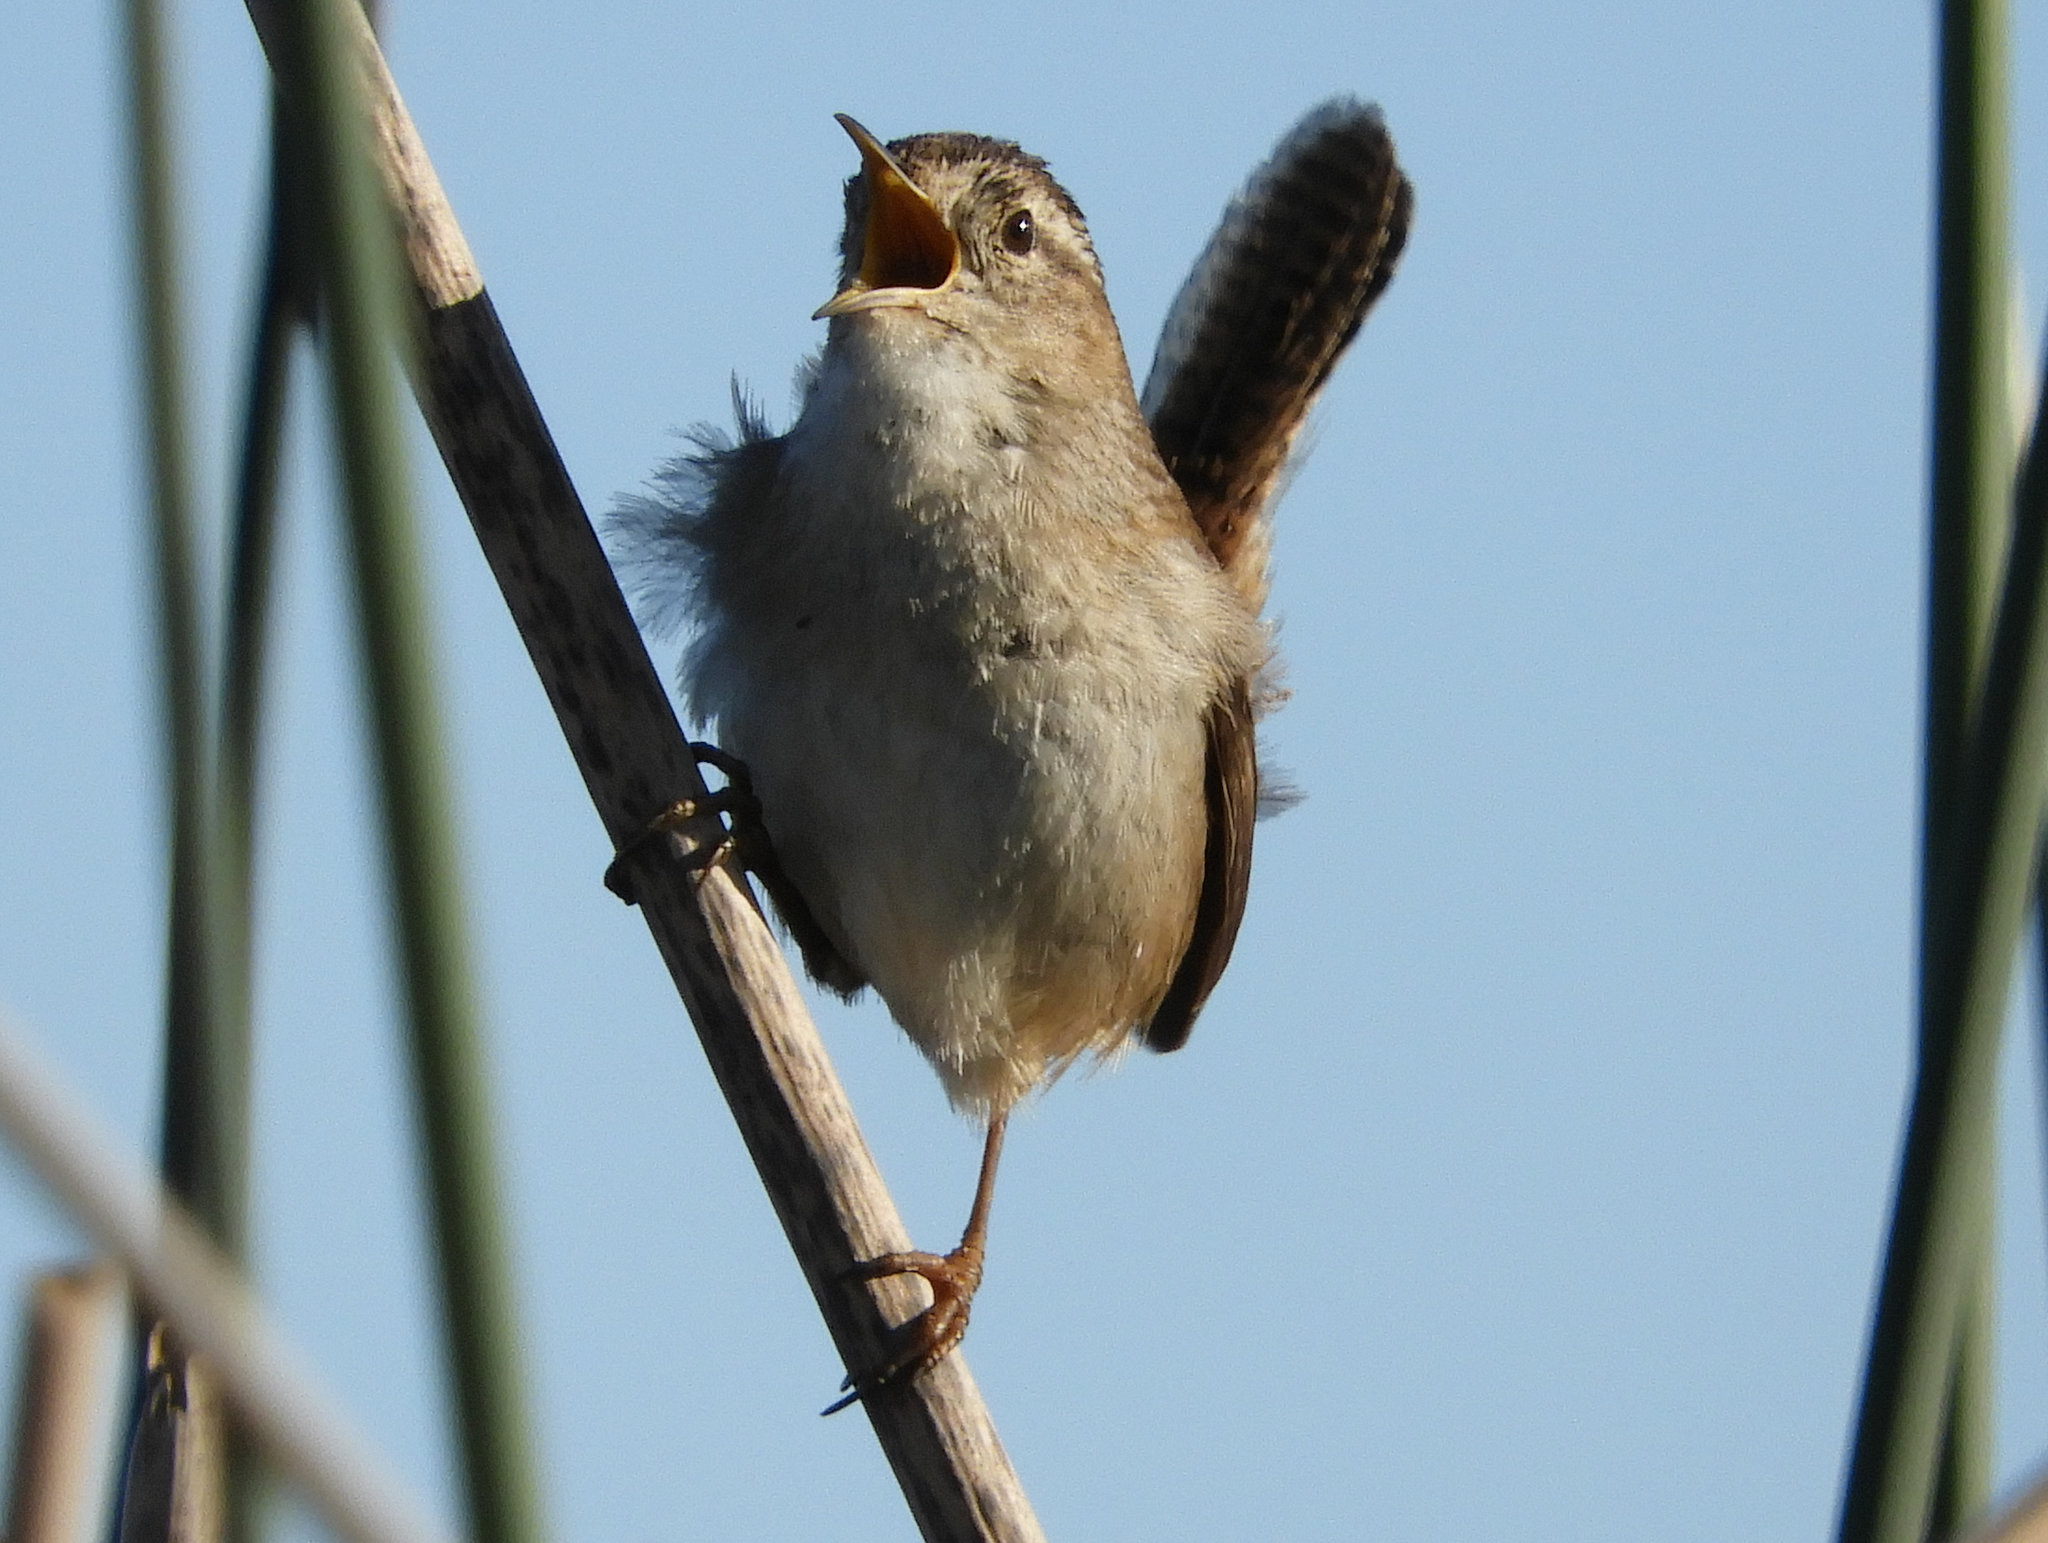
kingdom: Animalia
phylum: Chordata
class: Aves
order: Passeriformes
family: Troglodytidae
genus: Cistothorus
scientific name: Cistothorus palustris
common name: Marsh wren
